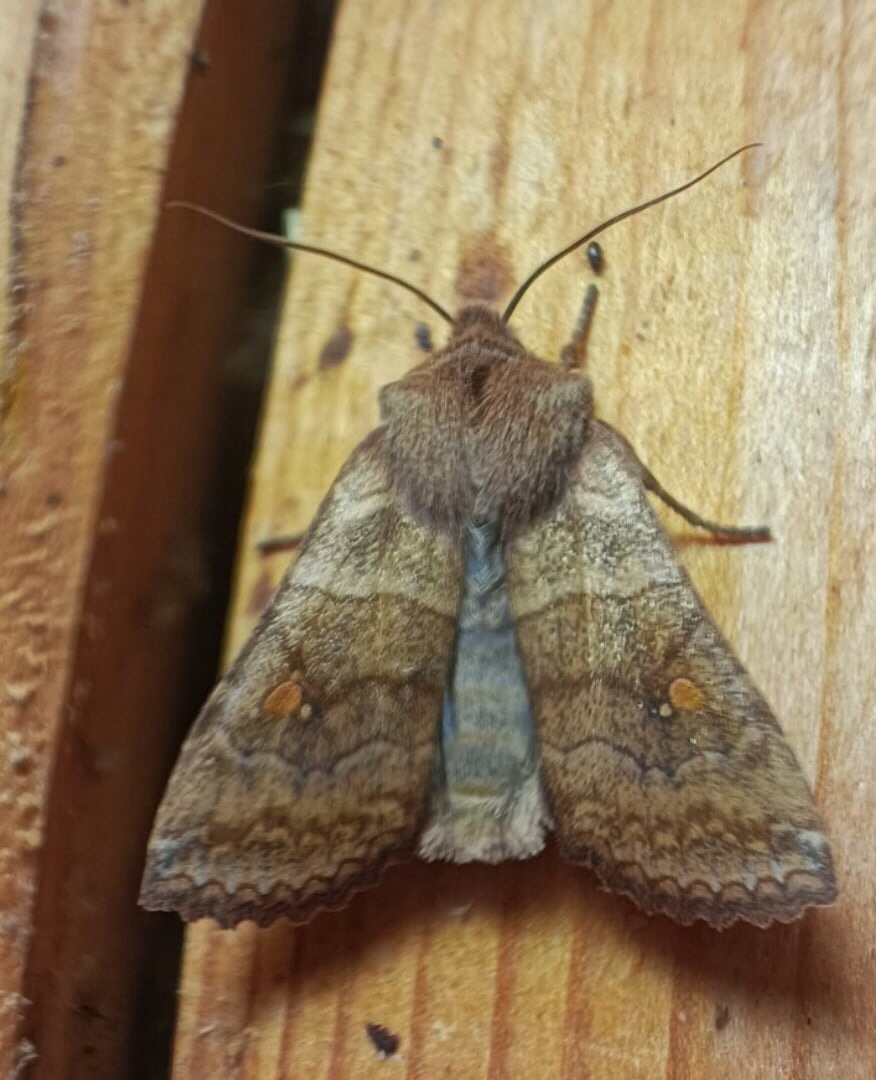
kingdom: Animalia
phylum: Arthropoda
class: Insecta
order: Lepidoptera
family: Noctuidae
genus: Eupsilia
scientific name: Eupsilia transversa
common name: Satellite
